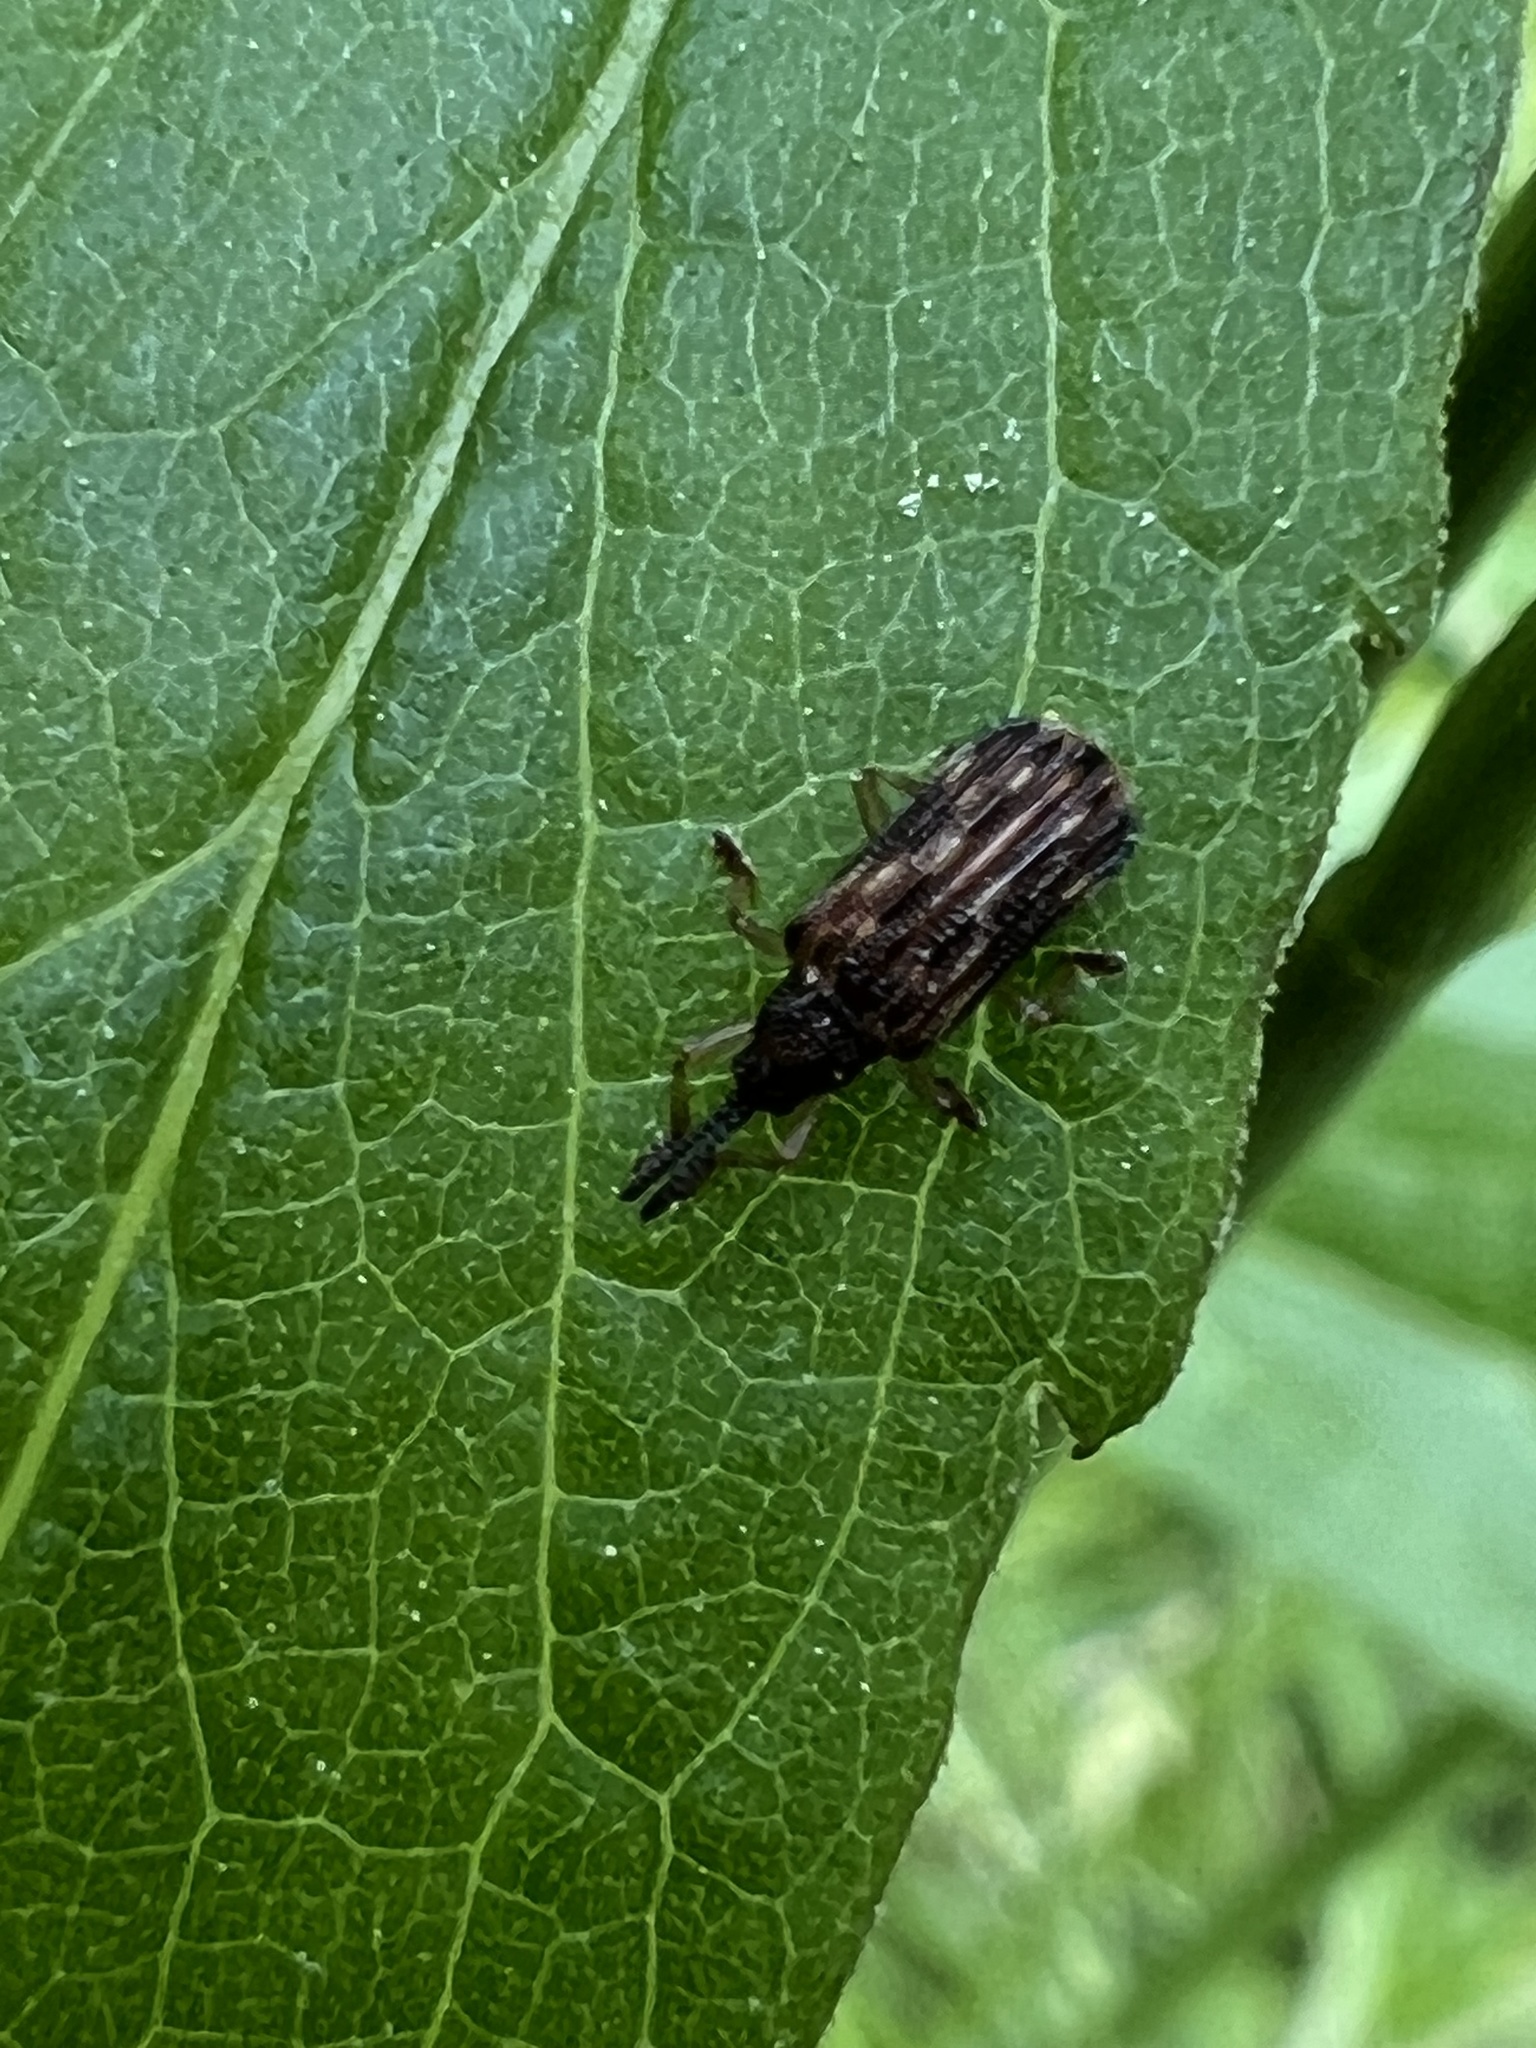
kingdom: Animalia
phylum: Arthropoda
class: Insecta
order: Coleoptera
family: Chrysomelidae
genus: Sumitrosis
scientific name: Sumitrosis inaequalis
